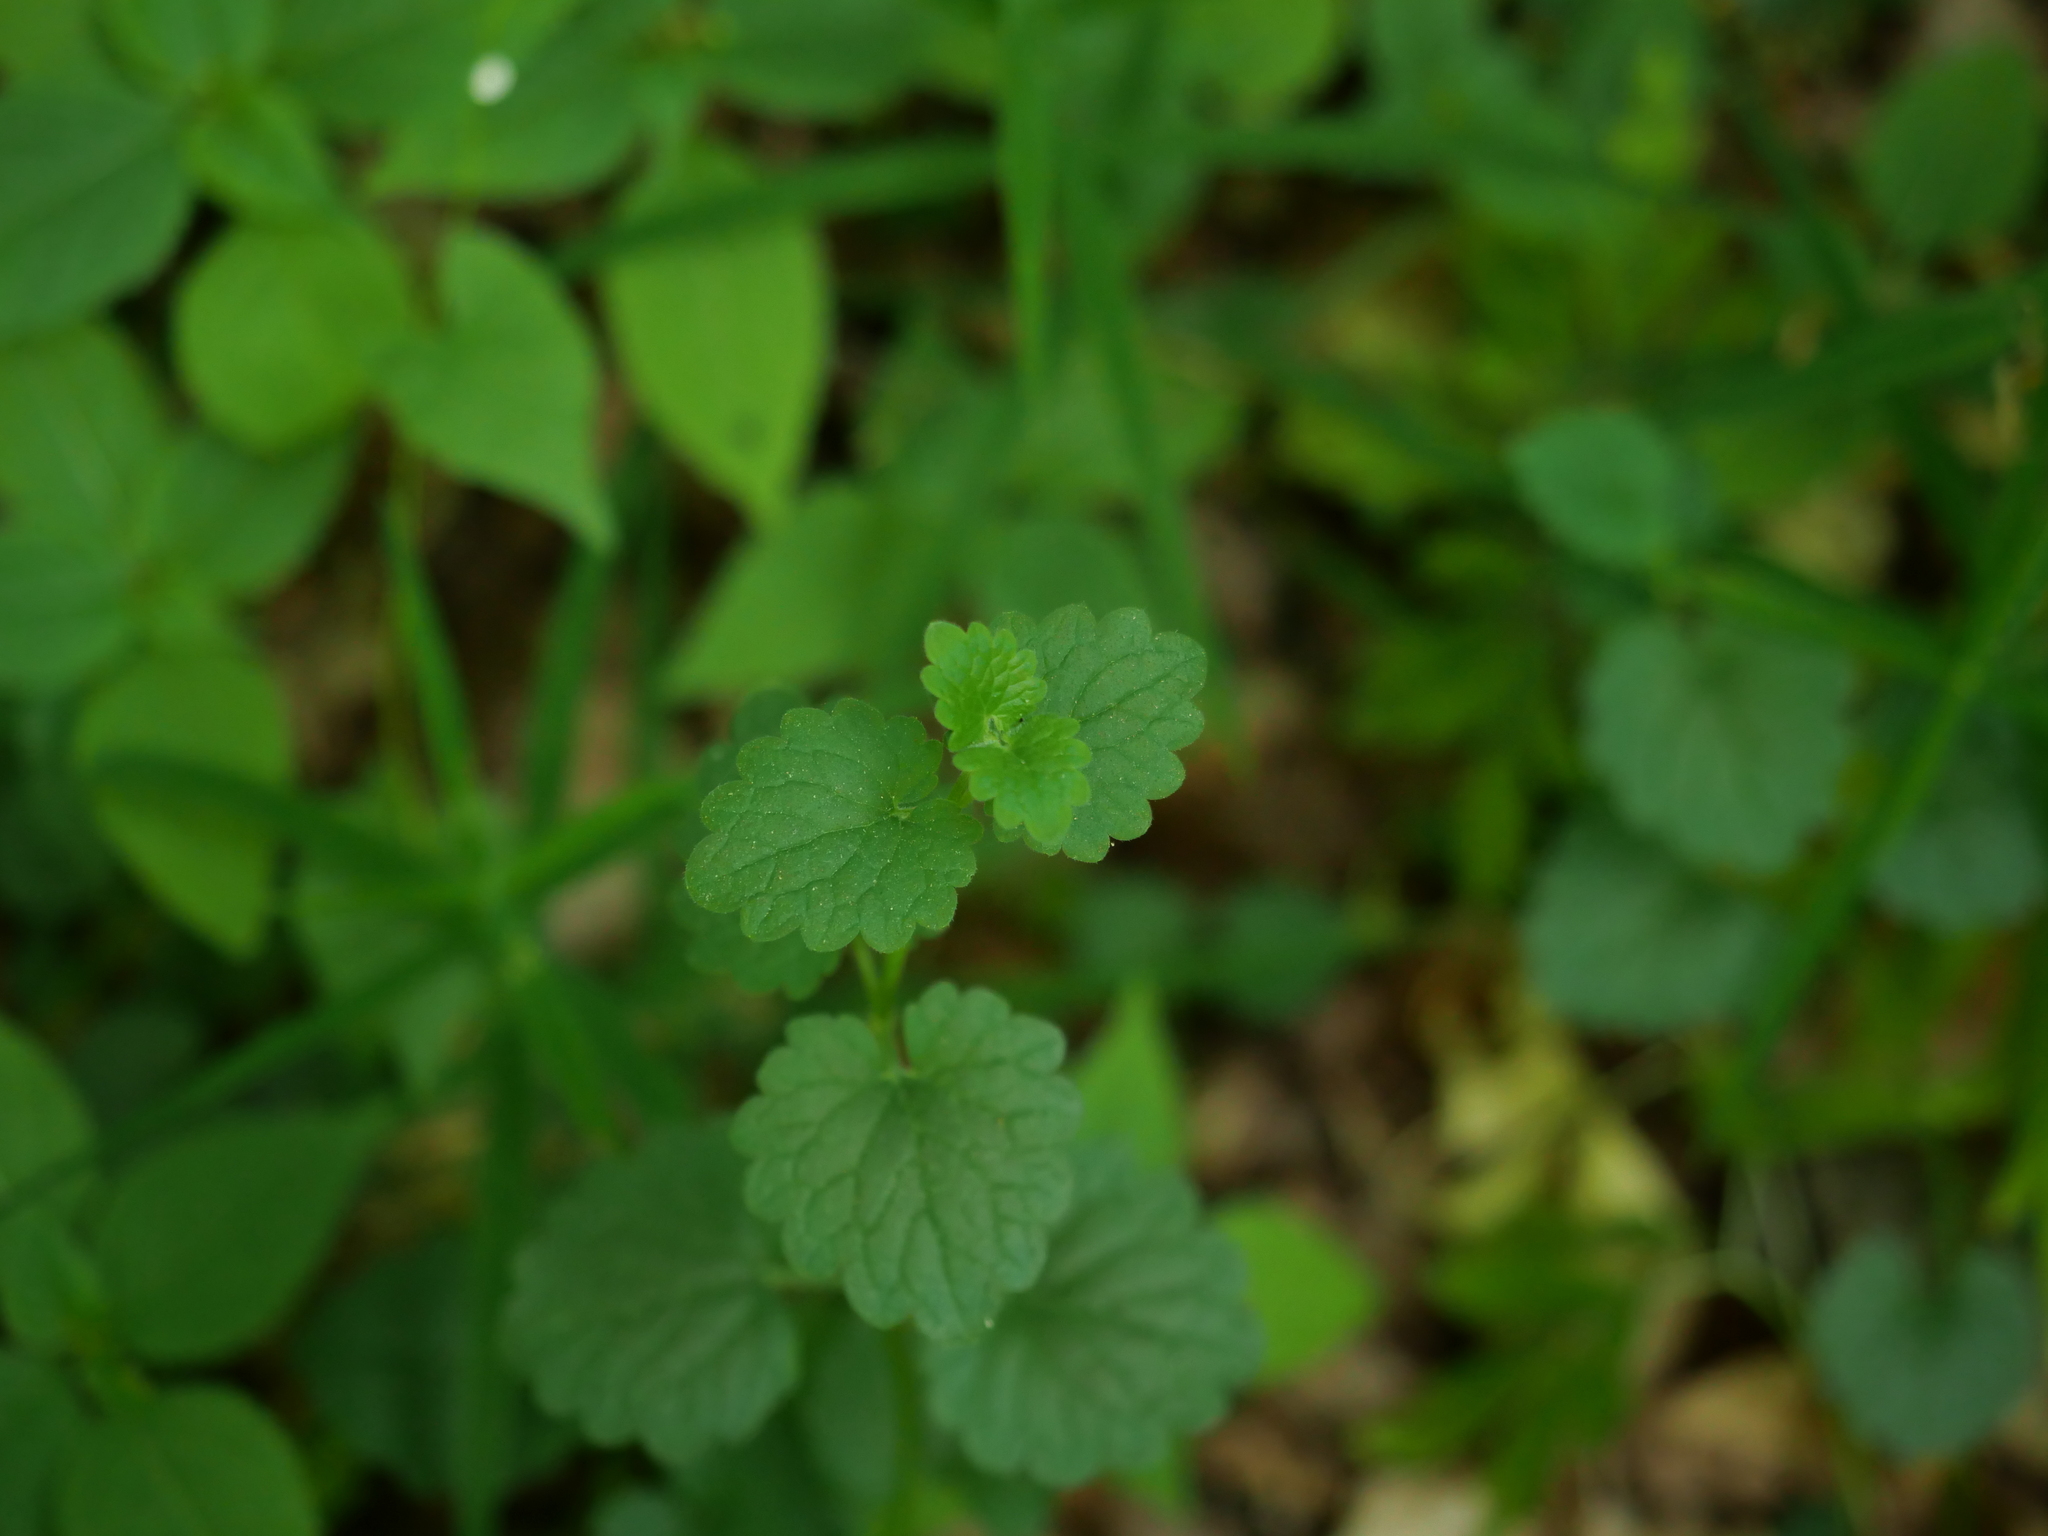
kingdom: Plantae
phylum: Tracheophyta
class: Magnoliopsida
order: Lamiales
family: Lamiaceae
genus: Glechoma
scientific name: Glechoma hederacea
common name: Ground ivy
